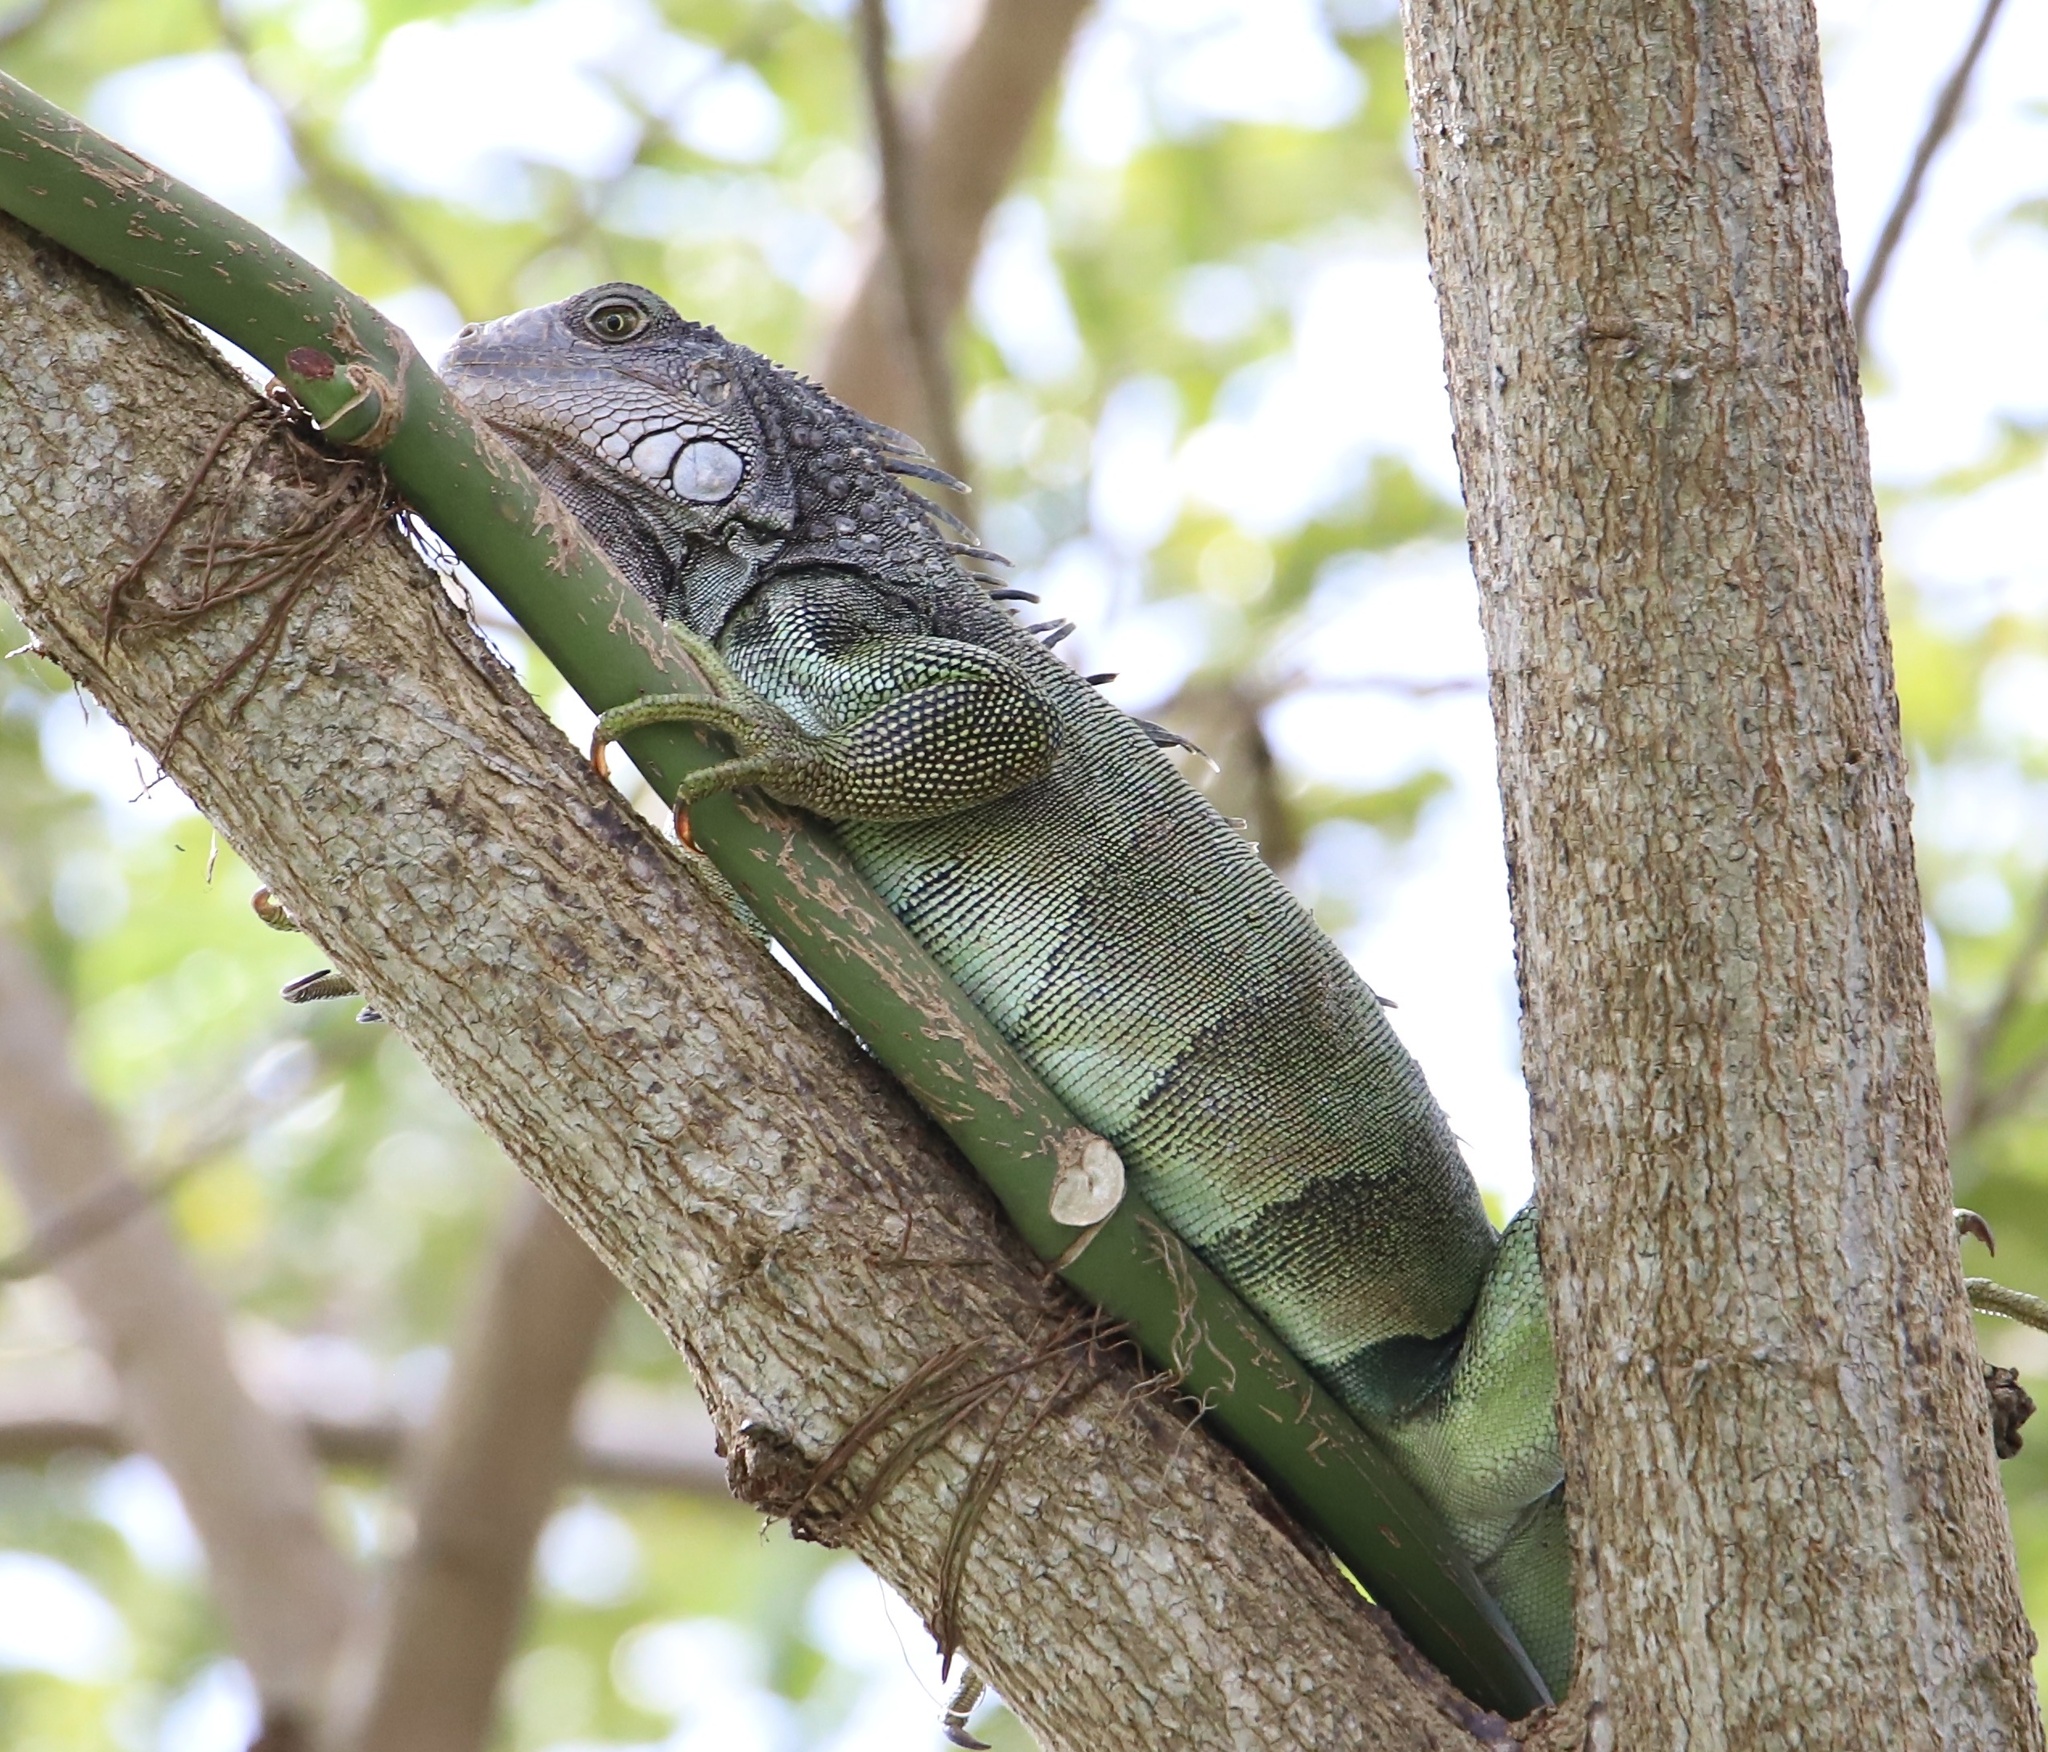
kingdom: Animalia
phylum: Chordata
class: Squamata
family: Iguanidae
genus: Iguana
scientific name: Iguana iguana
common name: Green iguana
